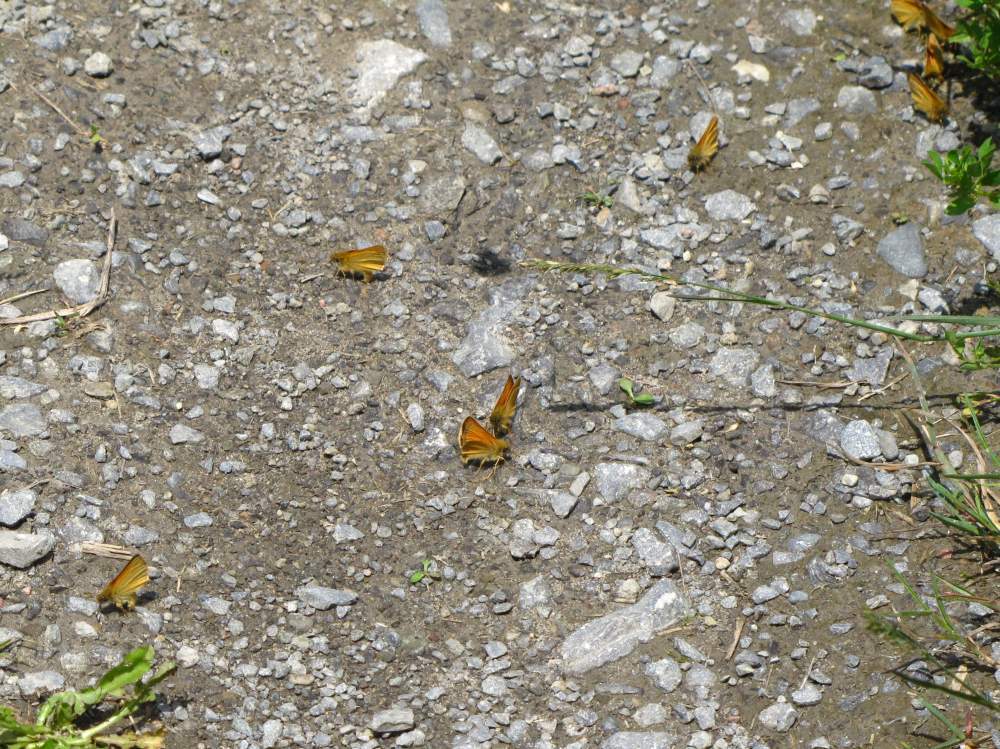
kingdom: Animalia
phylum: Arthropoda
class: Insecta
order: Lepidoptera
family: Hesperiidae
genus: Thymelicus
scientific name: Thymelicus lineola
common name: Essex skipper
